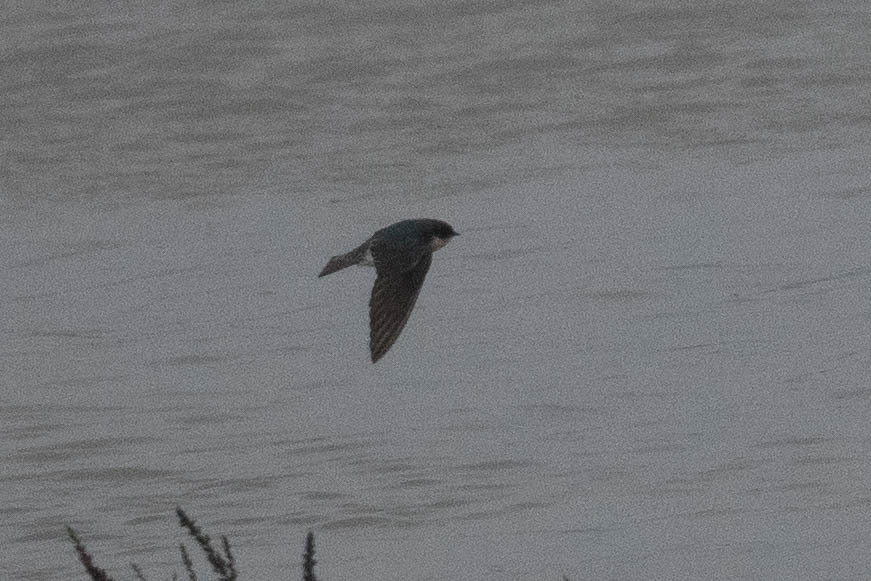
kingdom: Animalia
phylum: Chordata
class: Aves
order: Passeriformes
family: Hirundinidae
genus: Tachycineta
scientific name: Tachycineta bicolor
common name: Tree swallow
